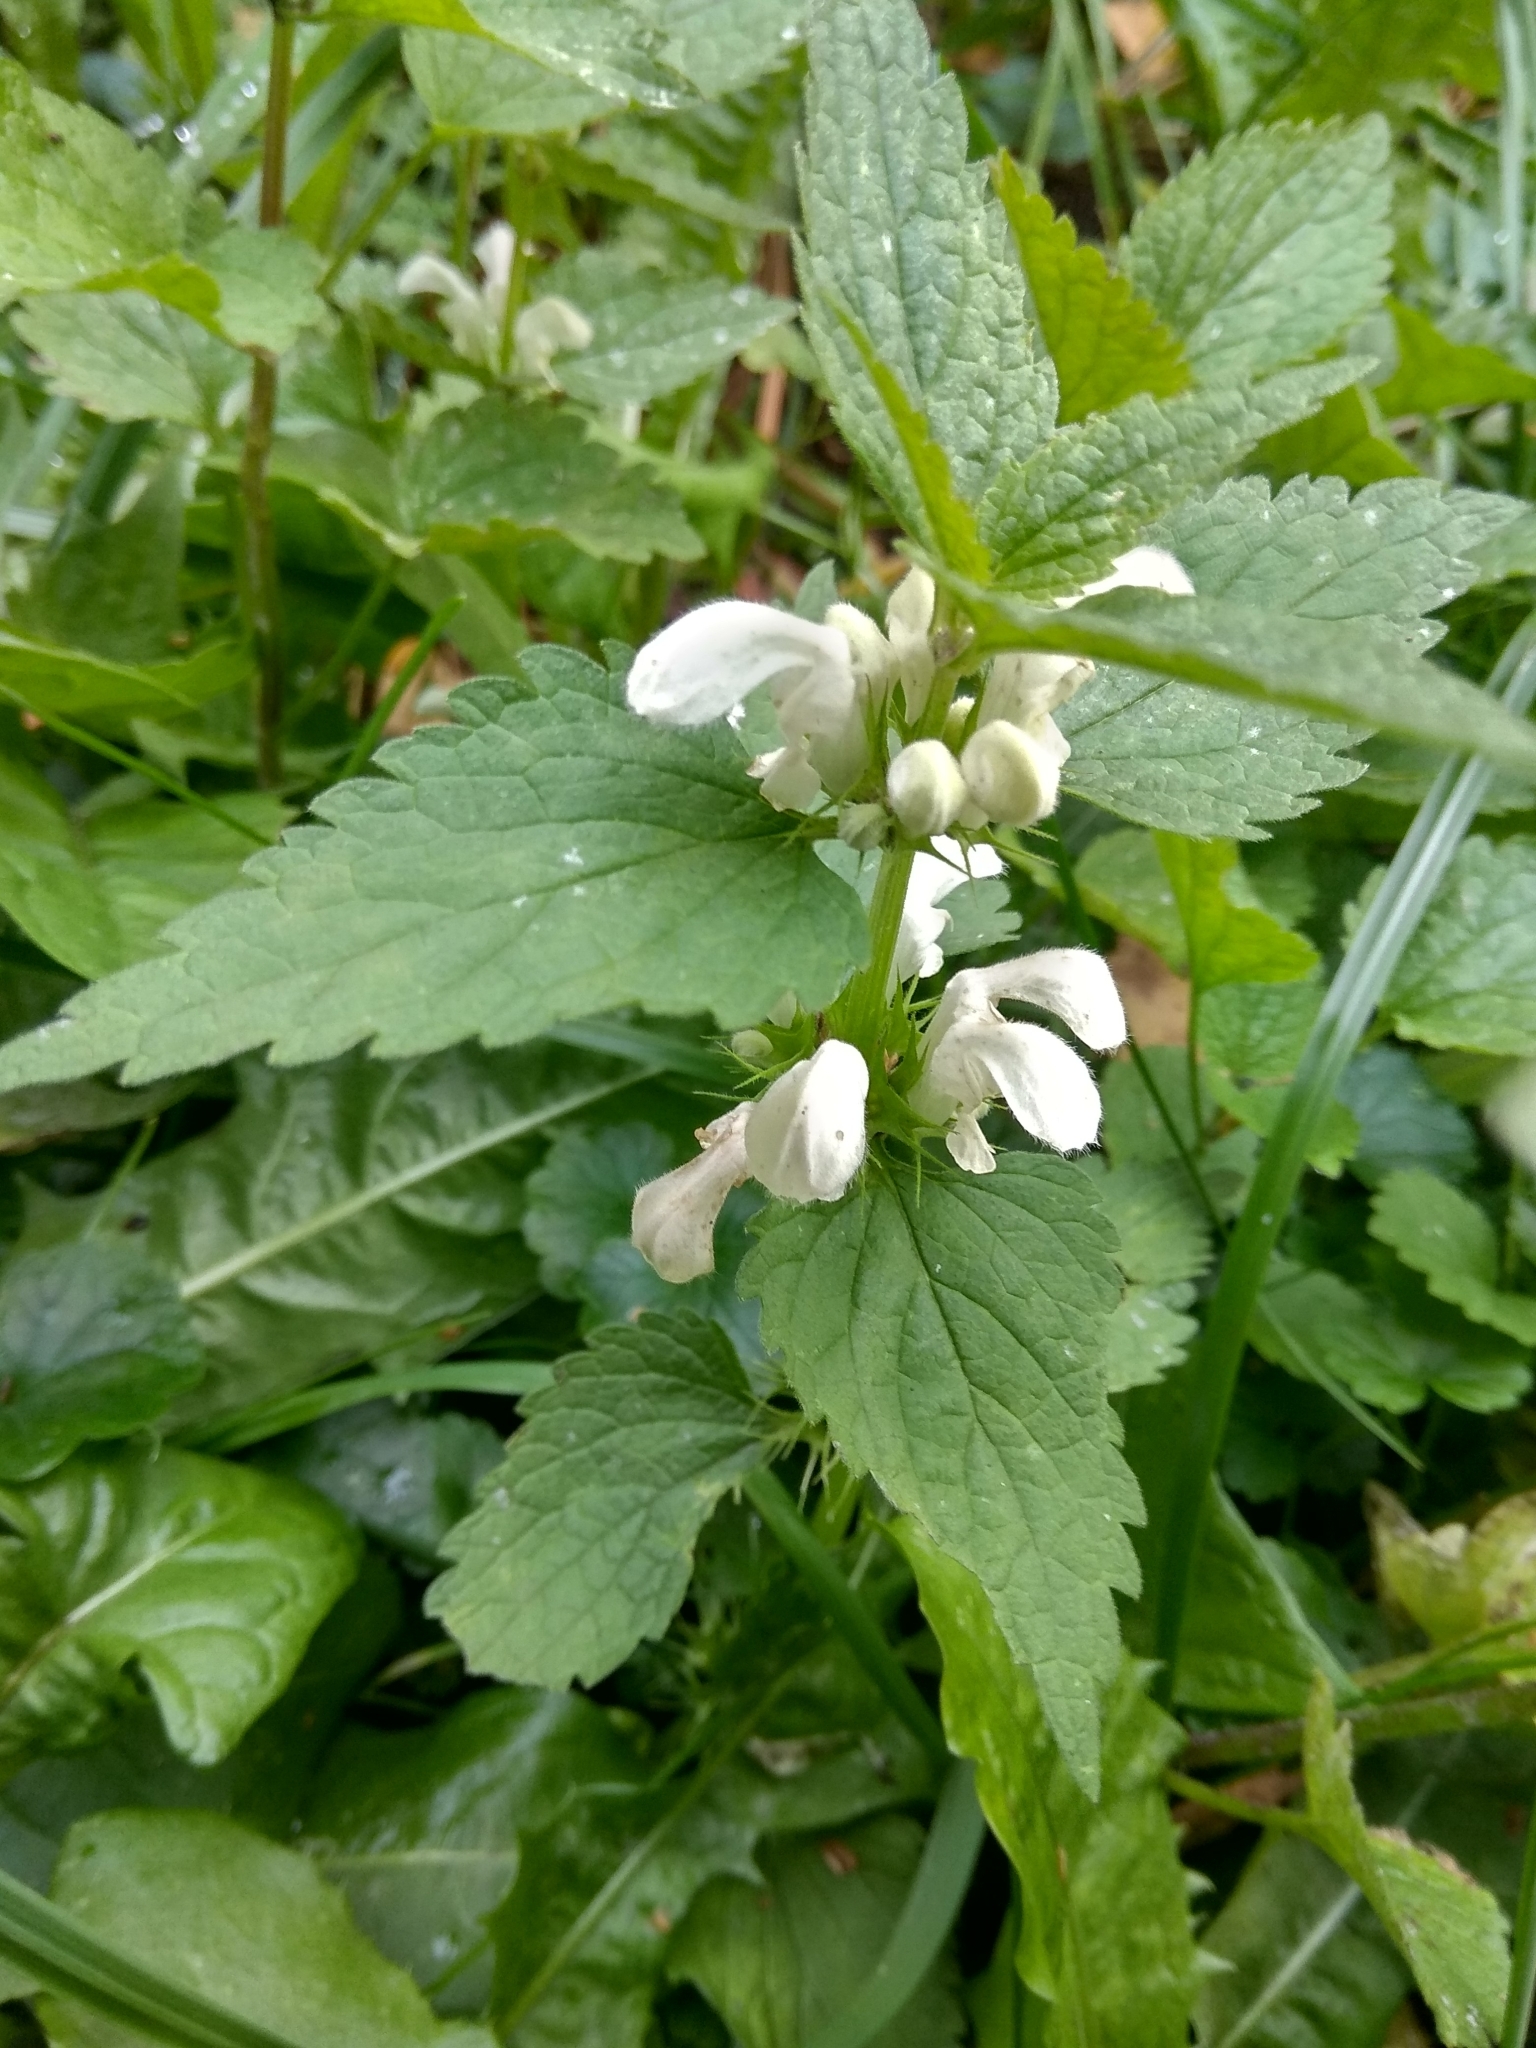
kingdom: Plantae
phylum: Tracheophyta
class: Magnoliopsida
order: Lamiales
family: Lamiaceae
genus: Lamium
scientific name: Lamium album
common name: White dead-nettle
